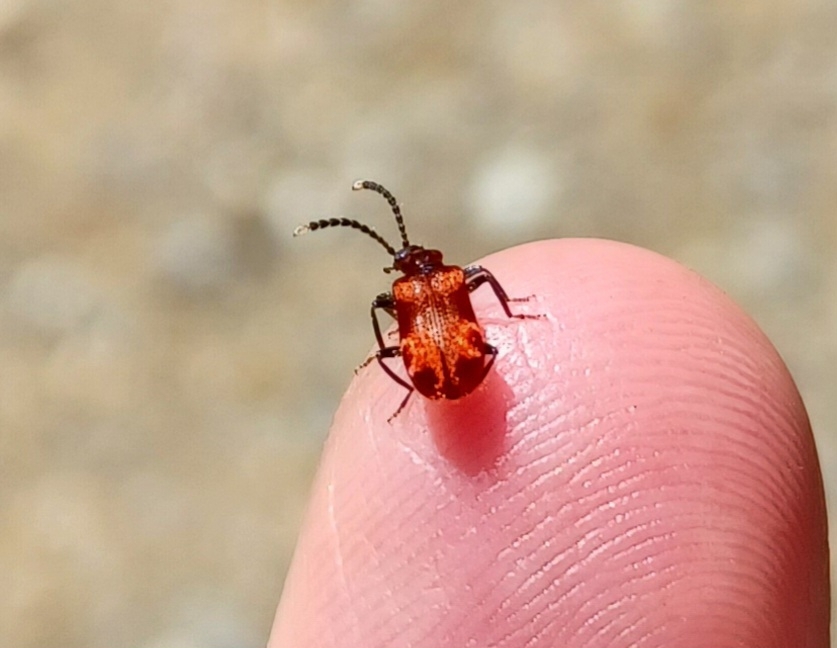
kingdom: Animalia
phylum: Arthropoda
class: Insecta
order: Coleoptera
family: Anthicidae
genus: Lemodes
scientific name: Lemodes
